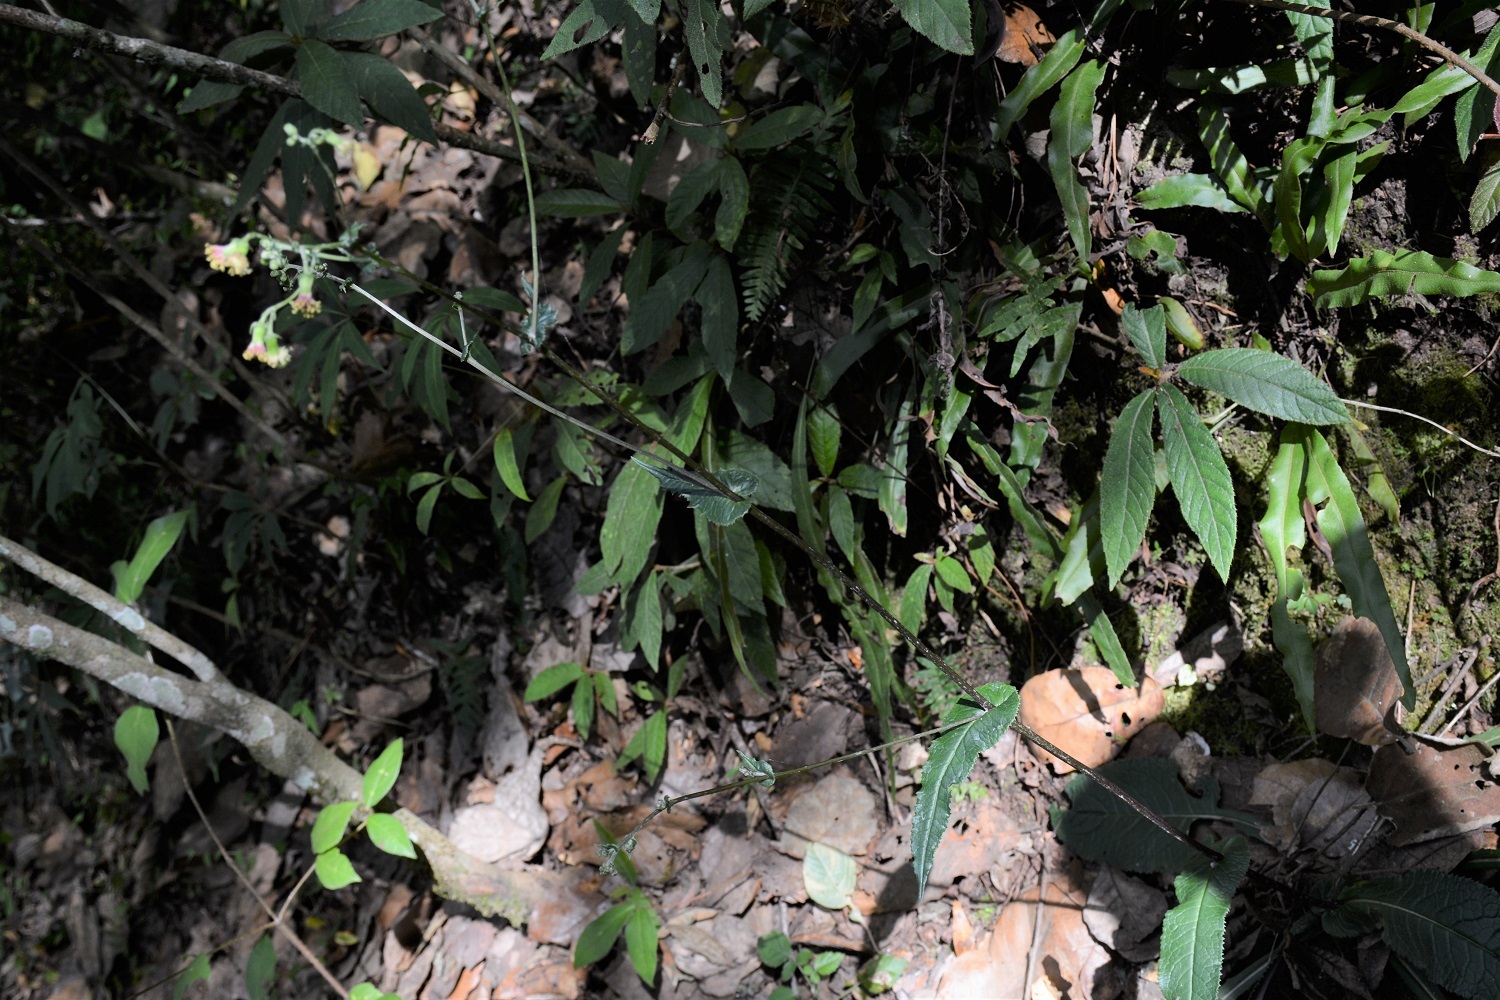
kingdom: Plantae
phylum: Tracheophyta
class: Magnoliopsida
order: Asterales
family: Asteraceae
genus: Senecio
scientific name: Senecio callosus
